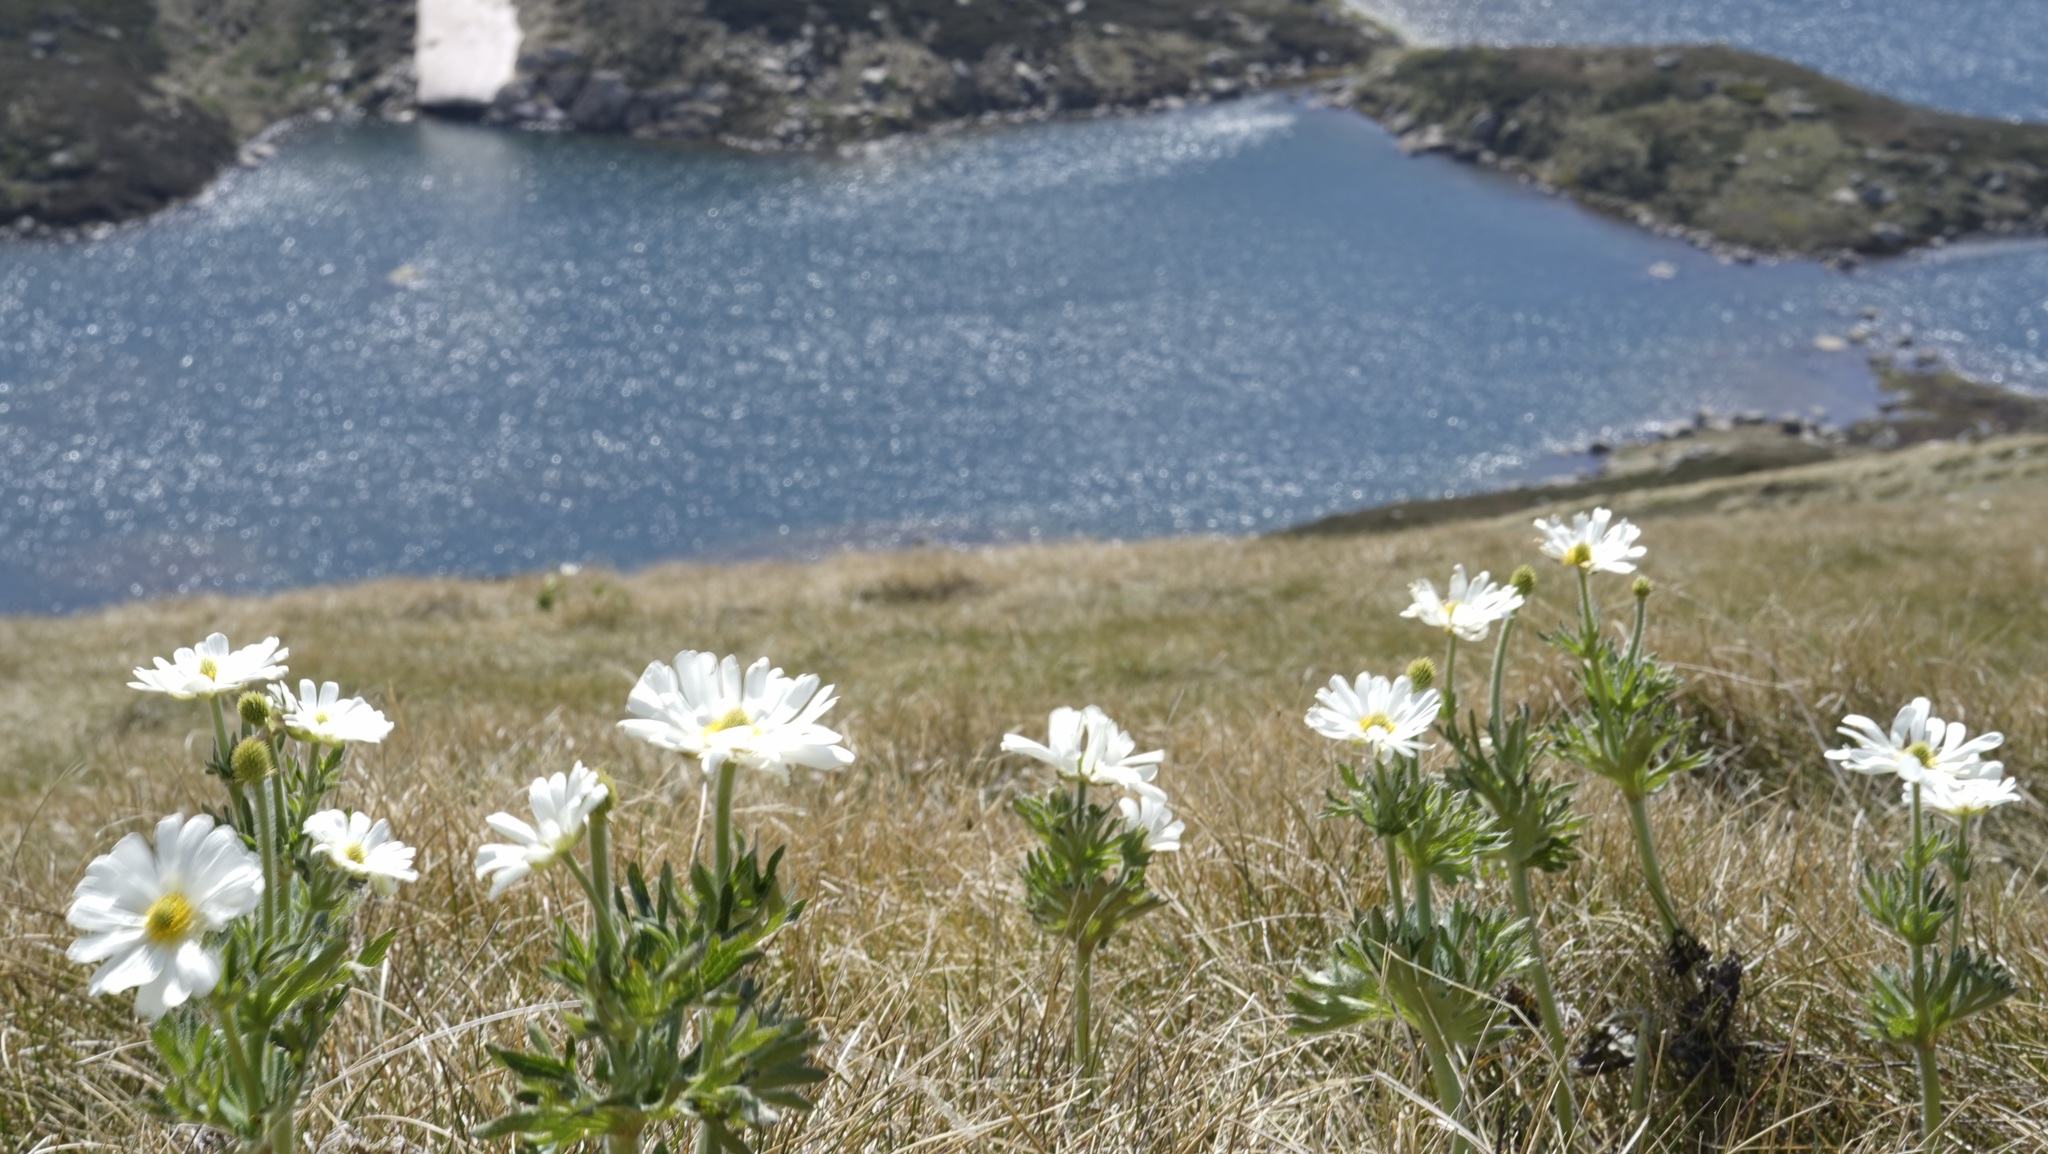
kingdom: Plantae
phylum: Tracheophyta
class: Magnoliopsida
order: Ranunculales
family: Ranunculaceae
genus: Ranunculus
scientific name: Ranunculus anemoneus
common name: Anemone buttercup
